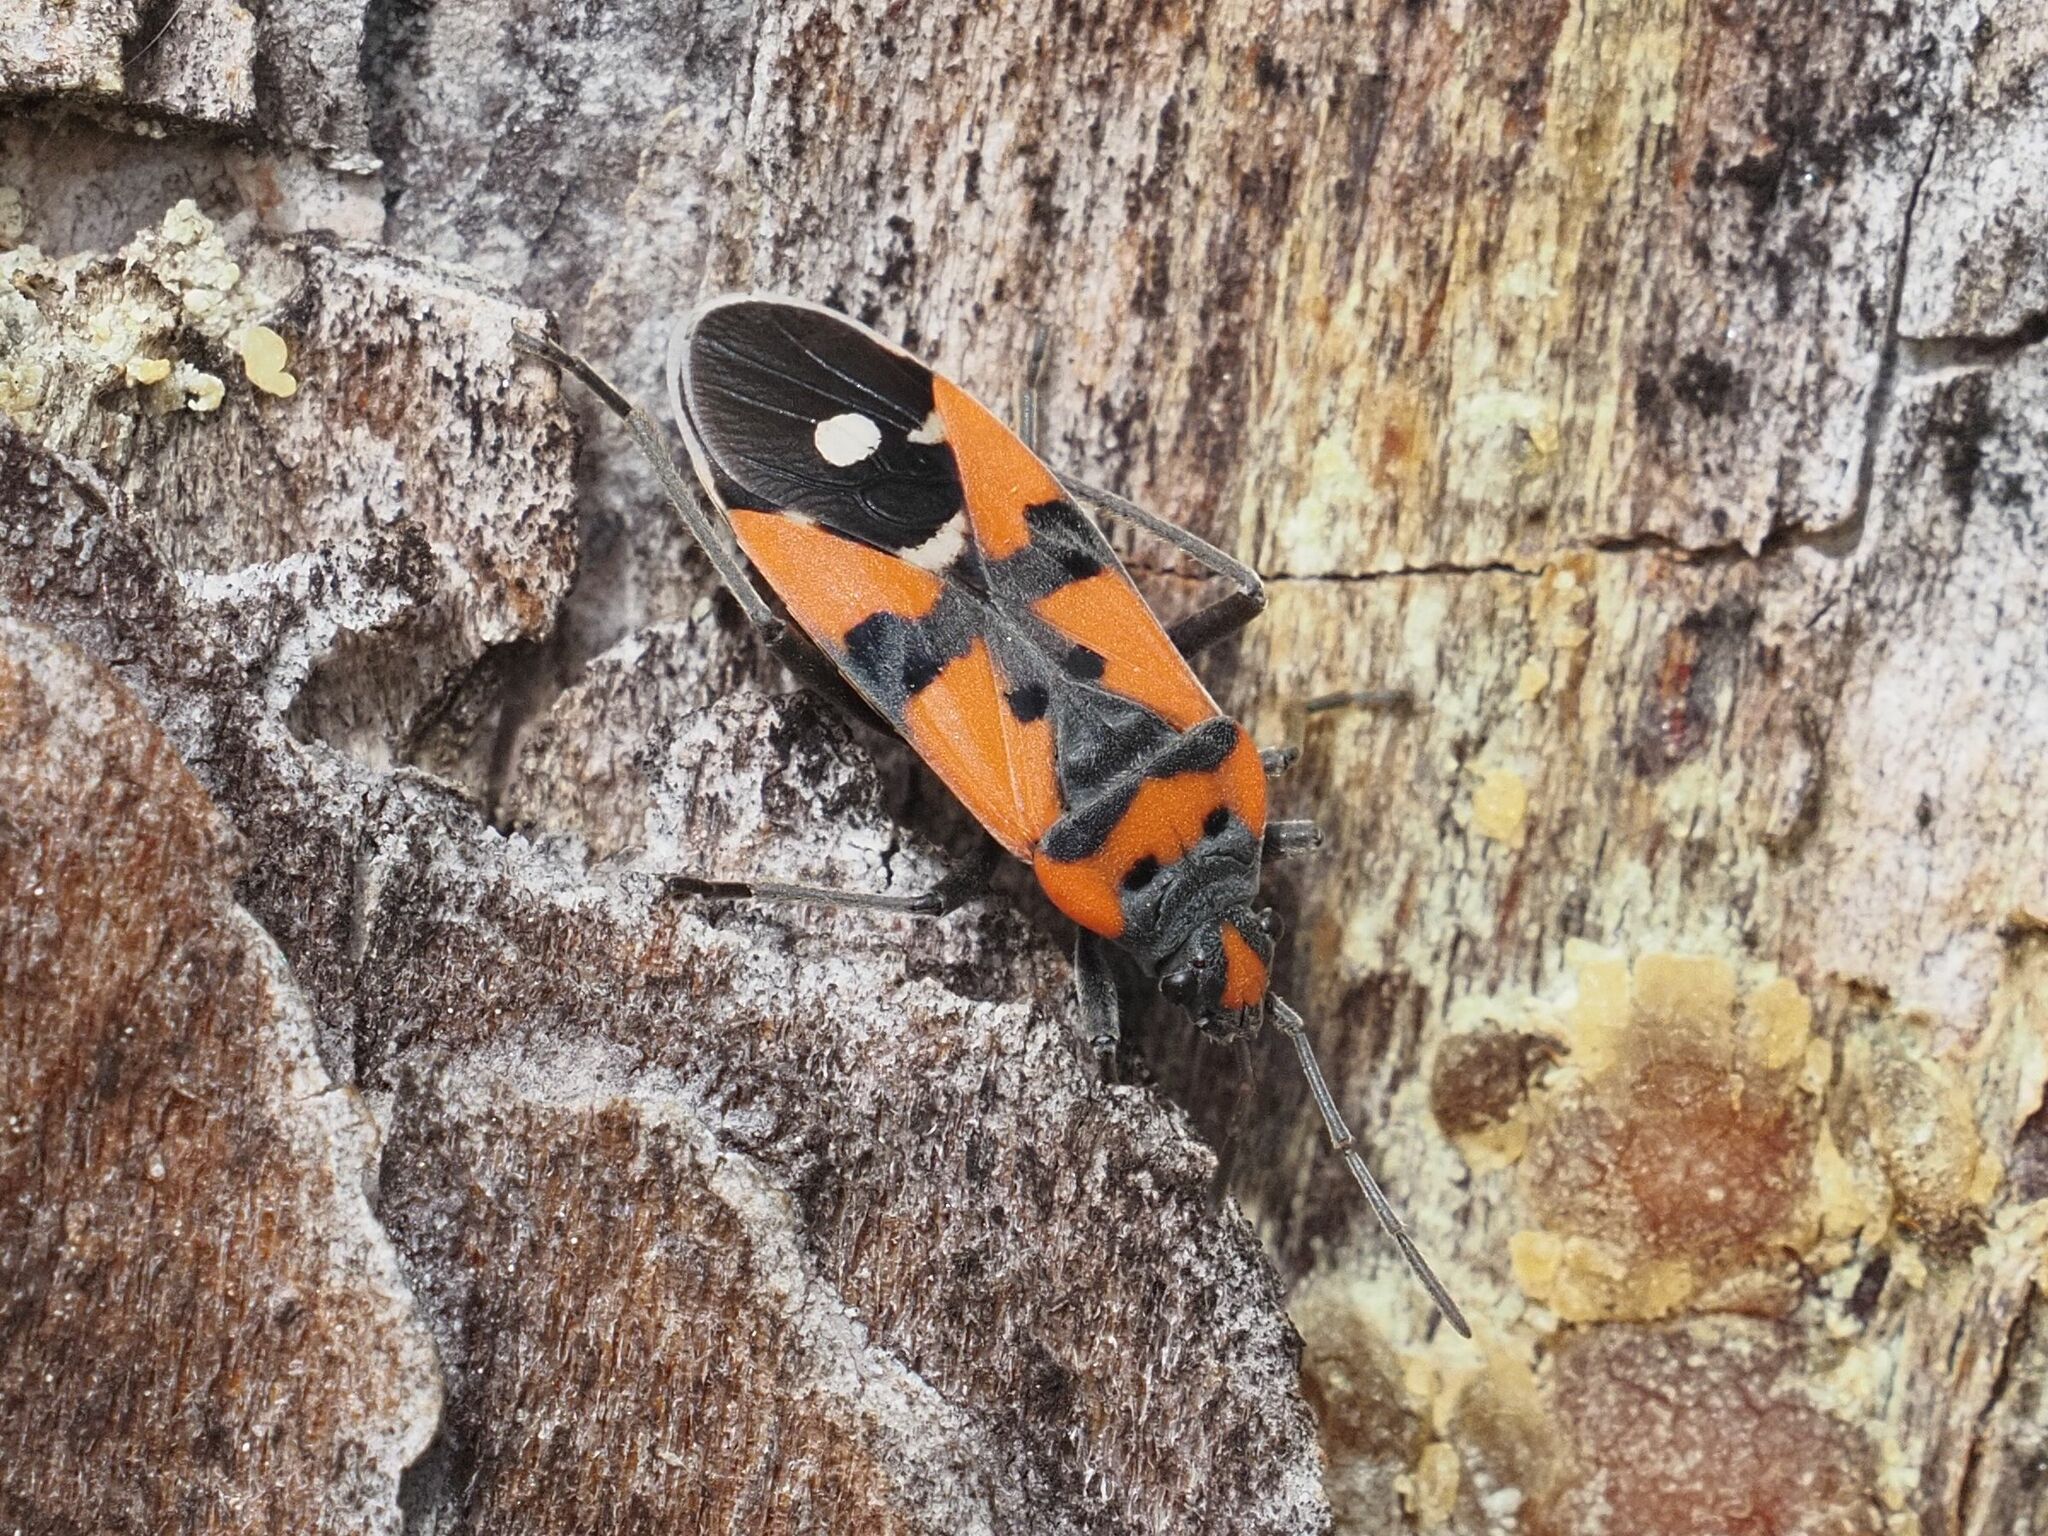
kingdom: Animalia
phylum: Arthropoda
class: Insecta
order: Hemiptera
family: Lygaeidae
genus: Lygaeus
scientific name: Lygaeus equestris
